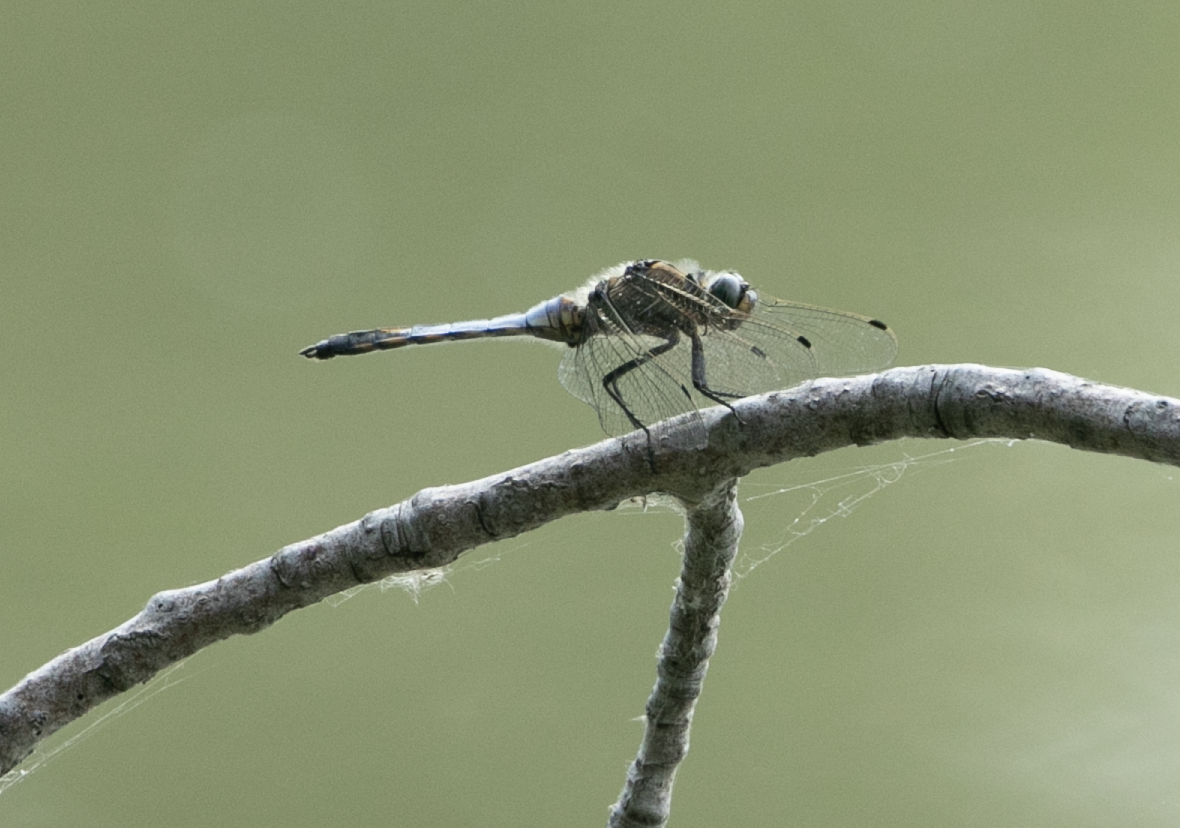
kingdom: Animalia
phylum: Arthropoda
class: Insecta
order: Odonata
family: Libellulidae
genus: Orthetrum
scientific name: Orthetrum cancellatum
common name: Black-tailed skimmer
